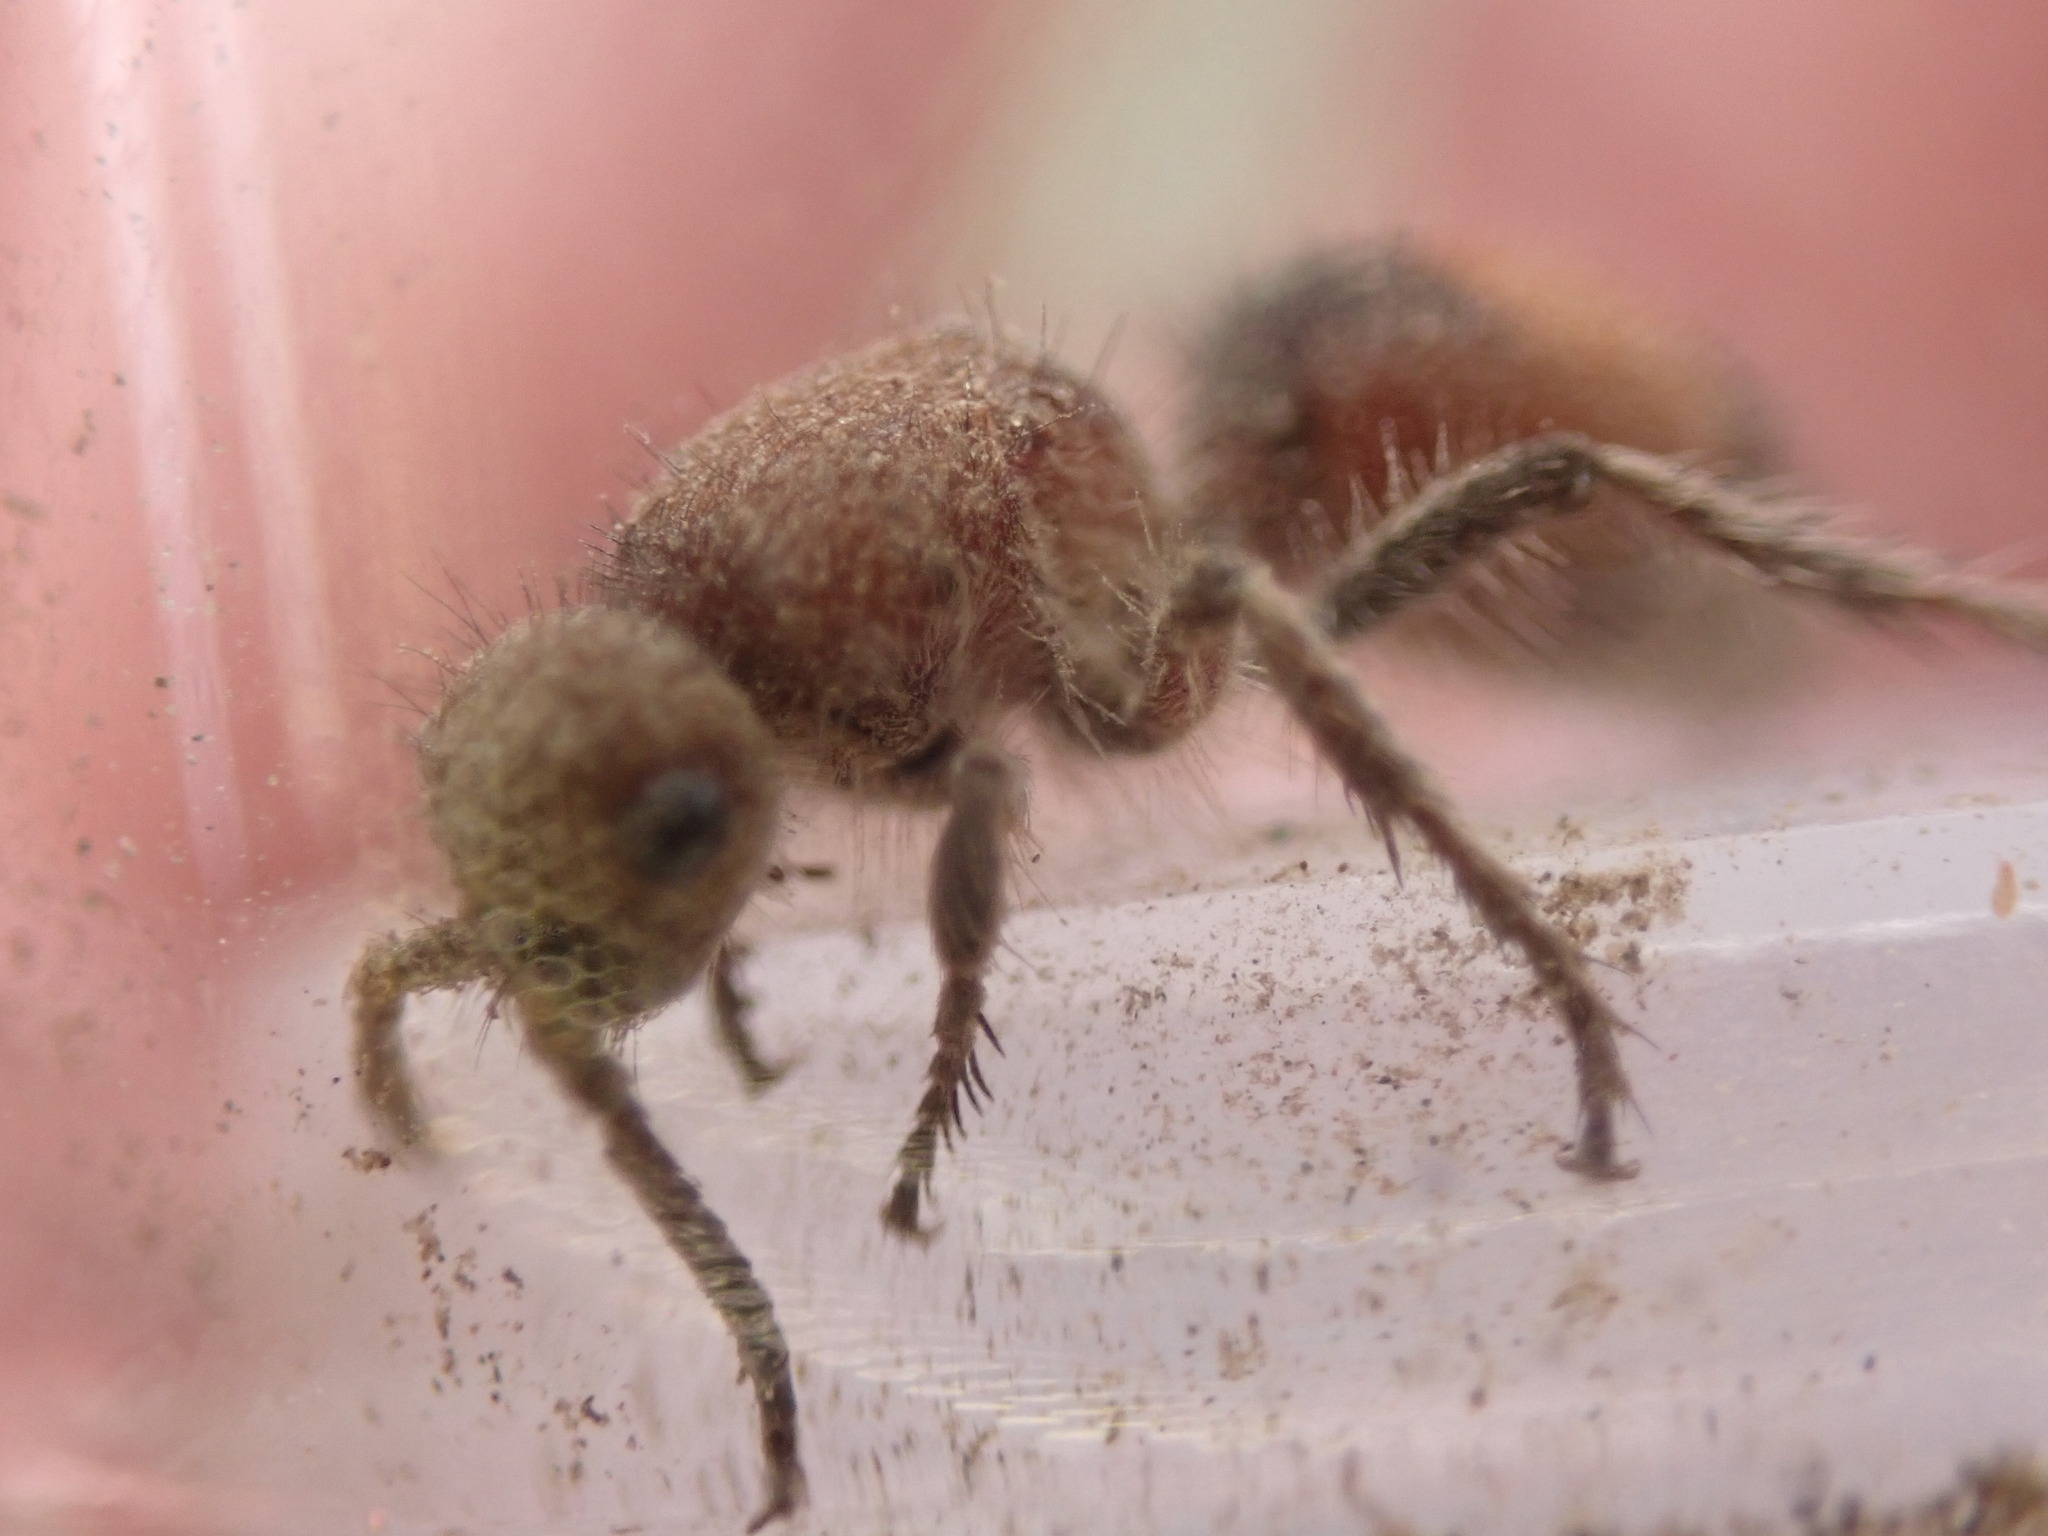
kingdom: Animalia
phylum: Arthropoda
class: Insecta
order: Hymenoptera
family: Mutillidae
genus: Dasymutilla
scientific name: Dasymutilla
